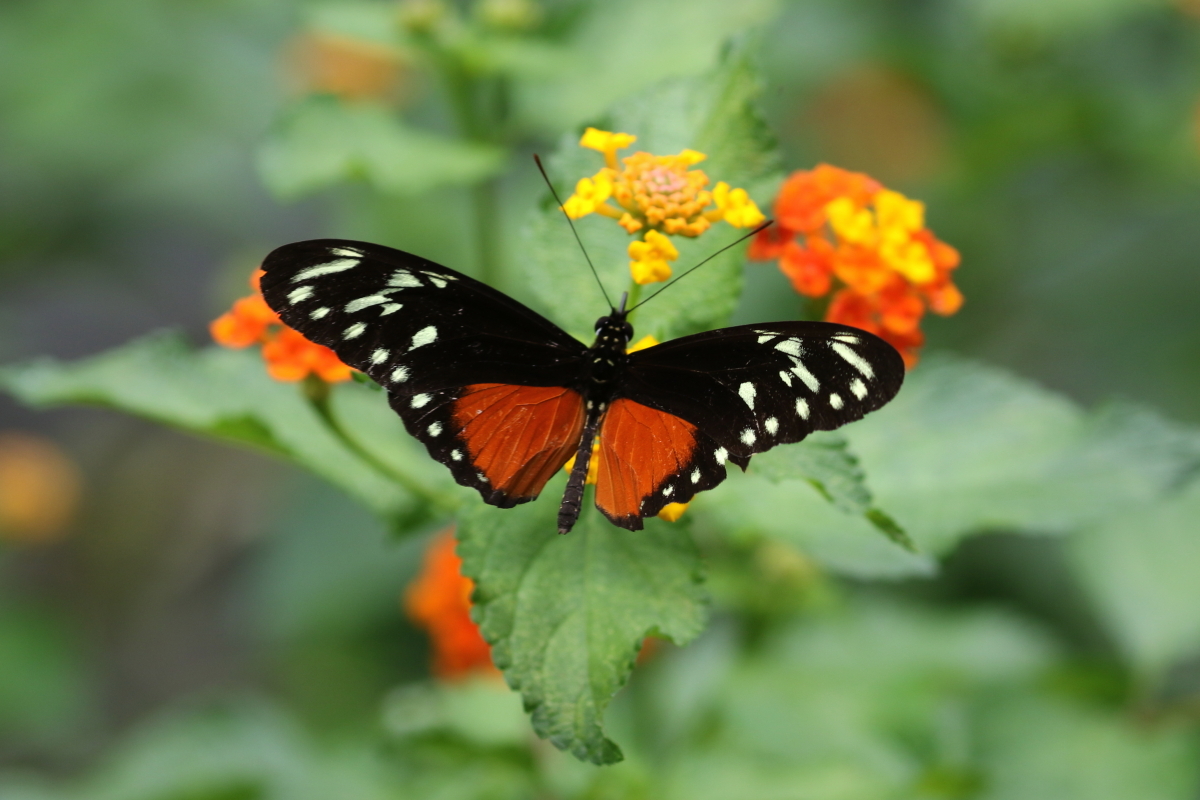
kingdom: Animalia
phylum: Arthropoda
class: Insecta
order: Lepidoptera
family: Nymphalidae
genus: Heliconius
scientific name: Heliconius hecalesia
